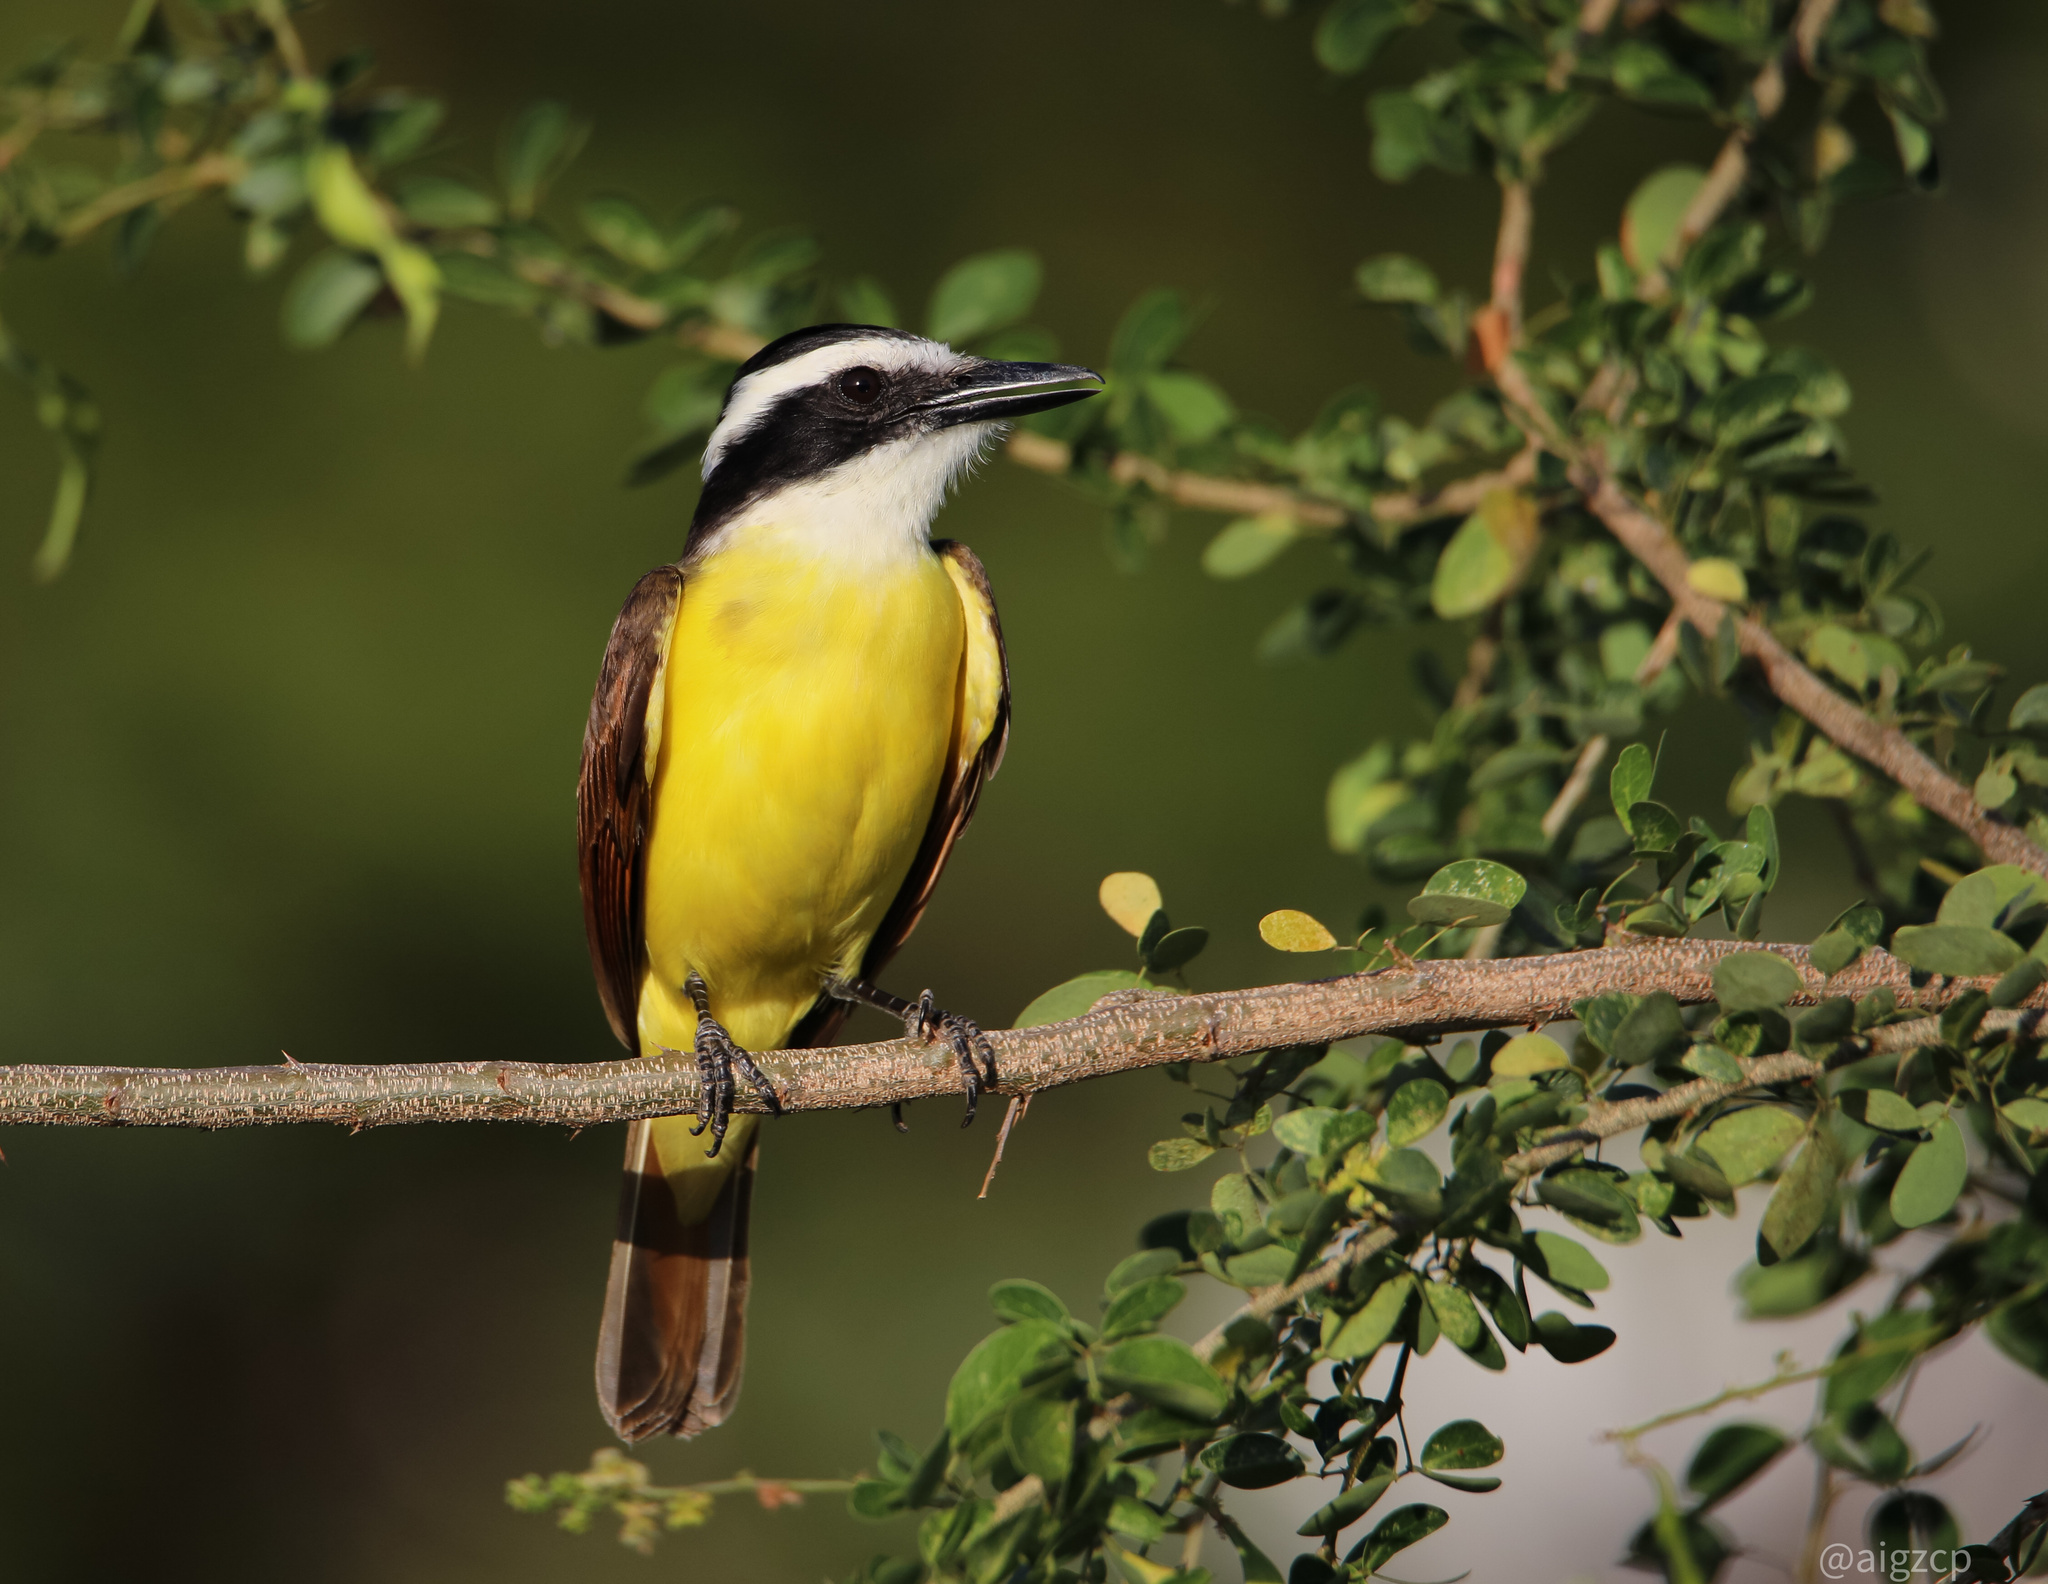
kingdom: Animalia
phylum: Chordata
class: Aves
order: Passeriformes
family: Tyrannidae
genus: Pitangus
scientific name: Pitangus sulphuratus
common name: Great kiskadee
